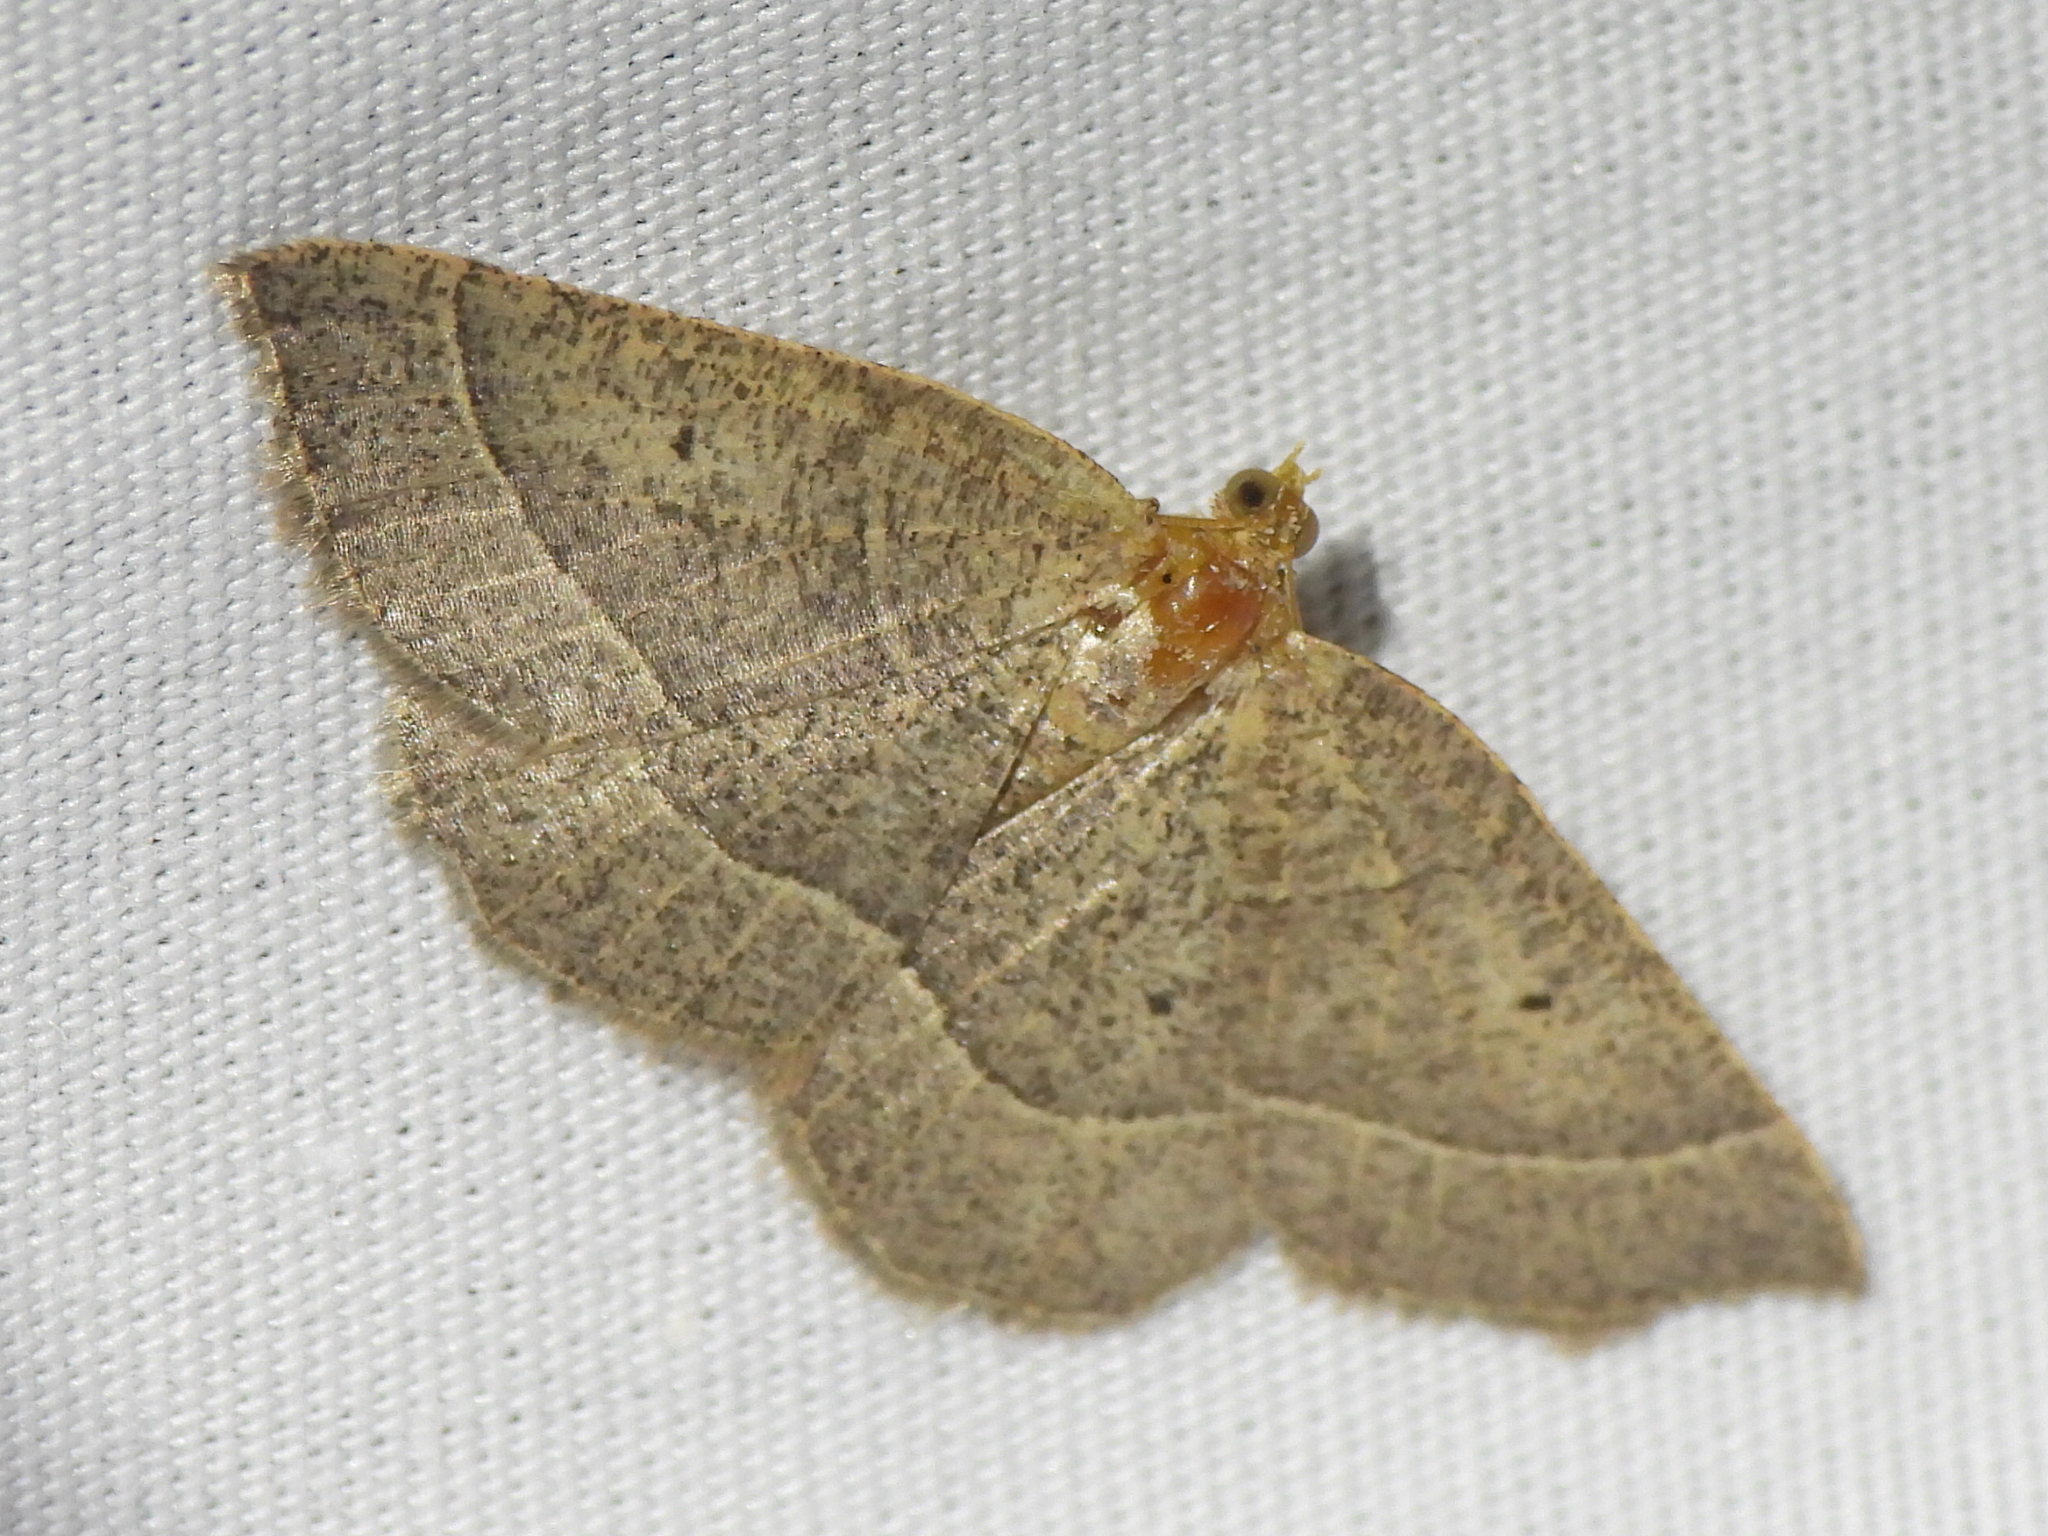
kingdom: Animalia
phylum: Arthropoda
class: Insecta
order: Lepidoptera
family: Geometridae
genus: Episemasia
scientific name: Episemasia cervinaria
